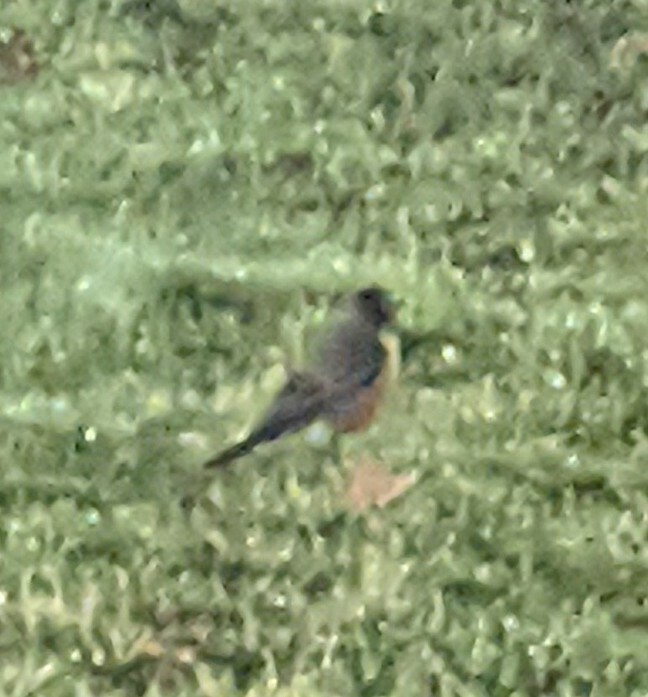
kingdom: Animalia
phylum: Chordata
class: Aves
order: Passeriformes
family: Turdidae
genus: Turdus
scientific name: Turdus migratorius
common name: American robin
